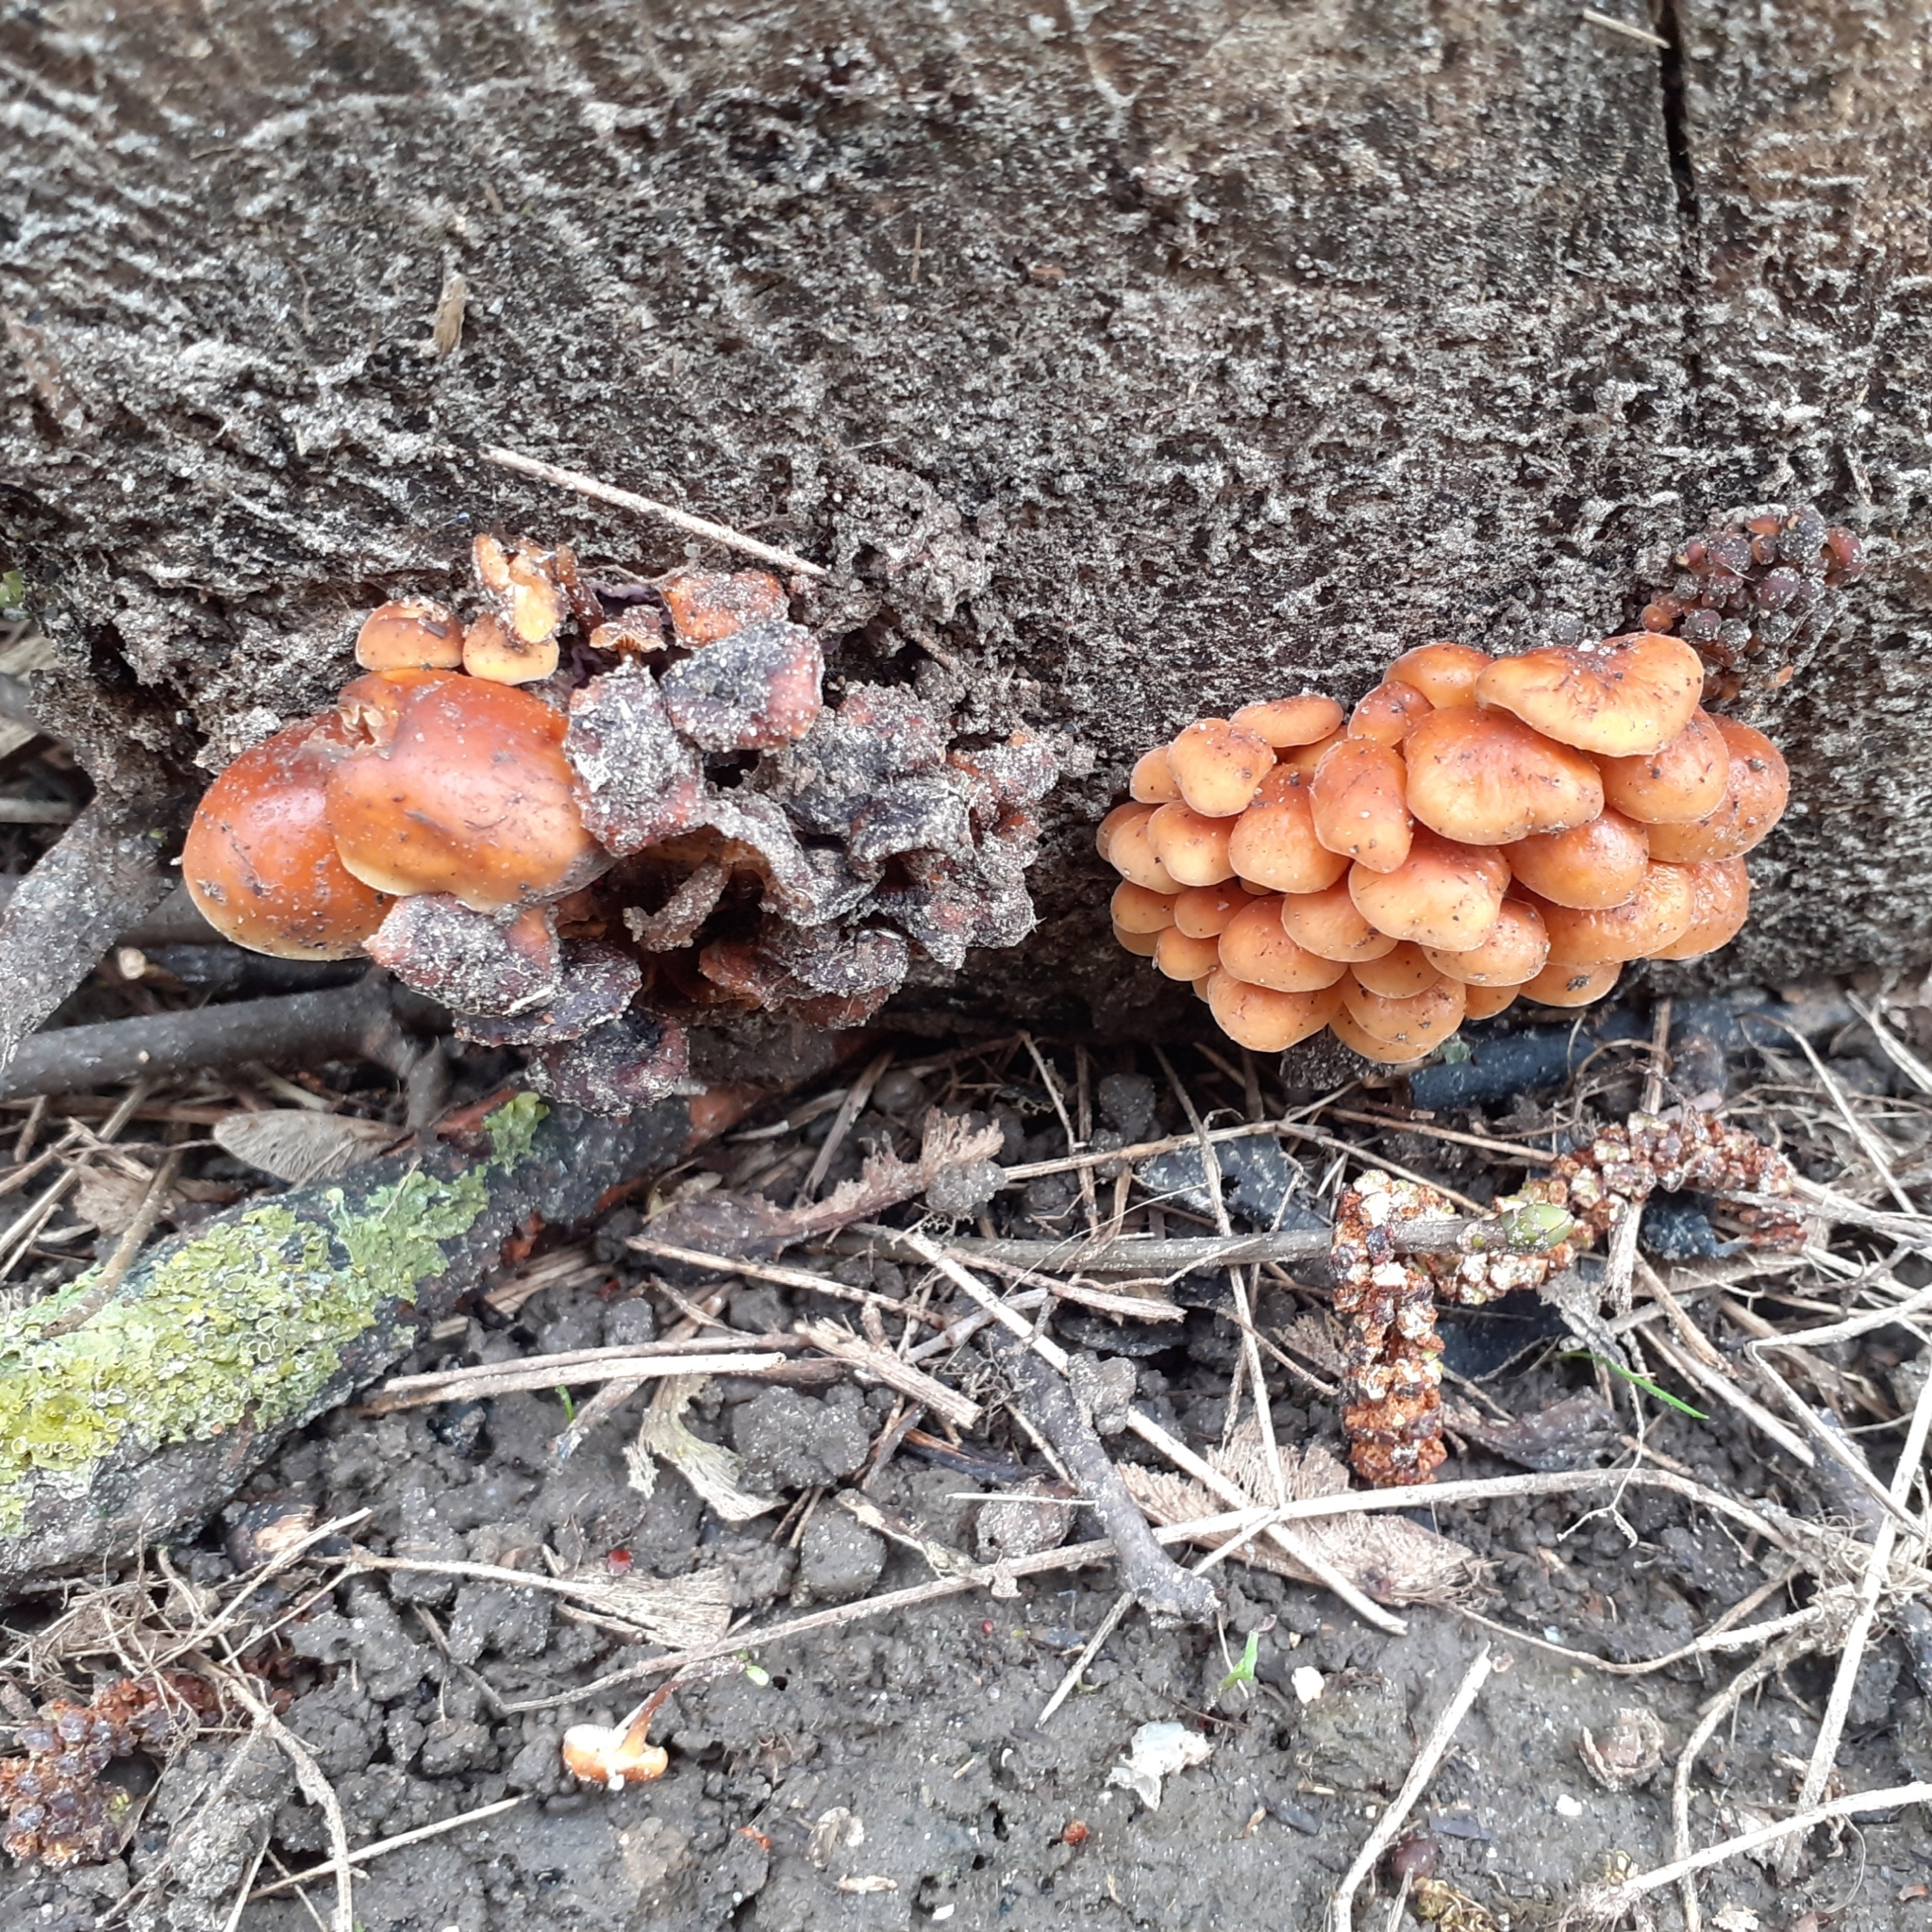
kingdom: Fungi
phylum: Basidiomycota
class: Agaricomycetes
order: Agaricales
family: Physalacriaceae
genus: Flammulina
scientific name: Flammulina
